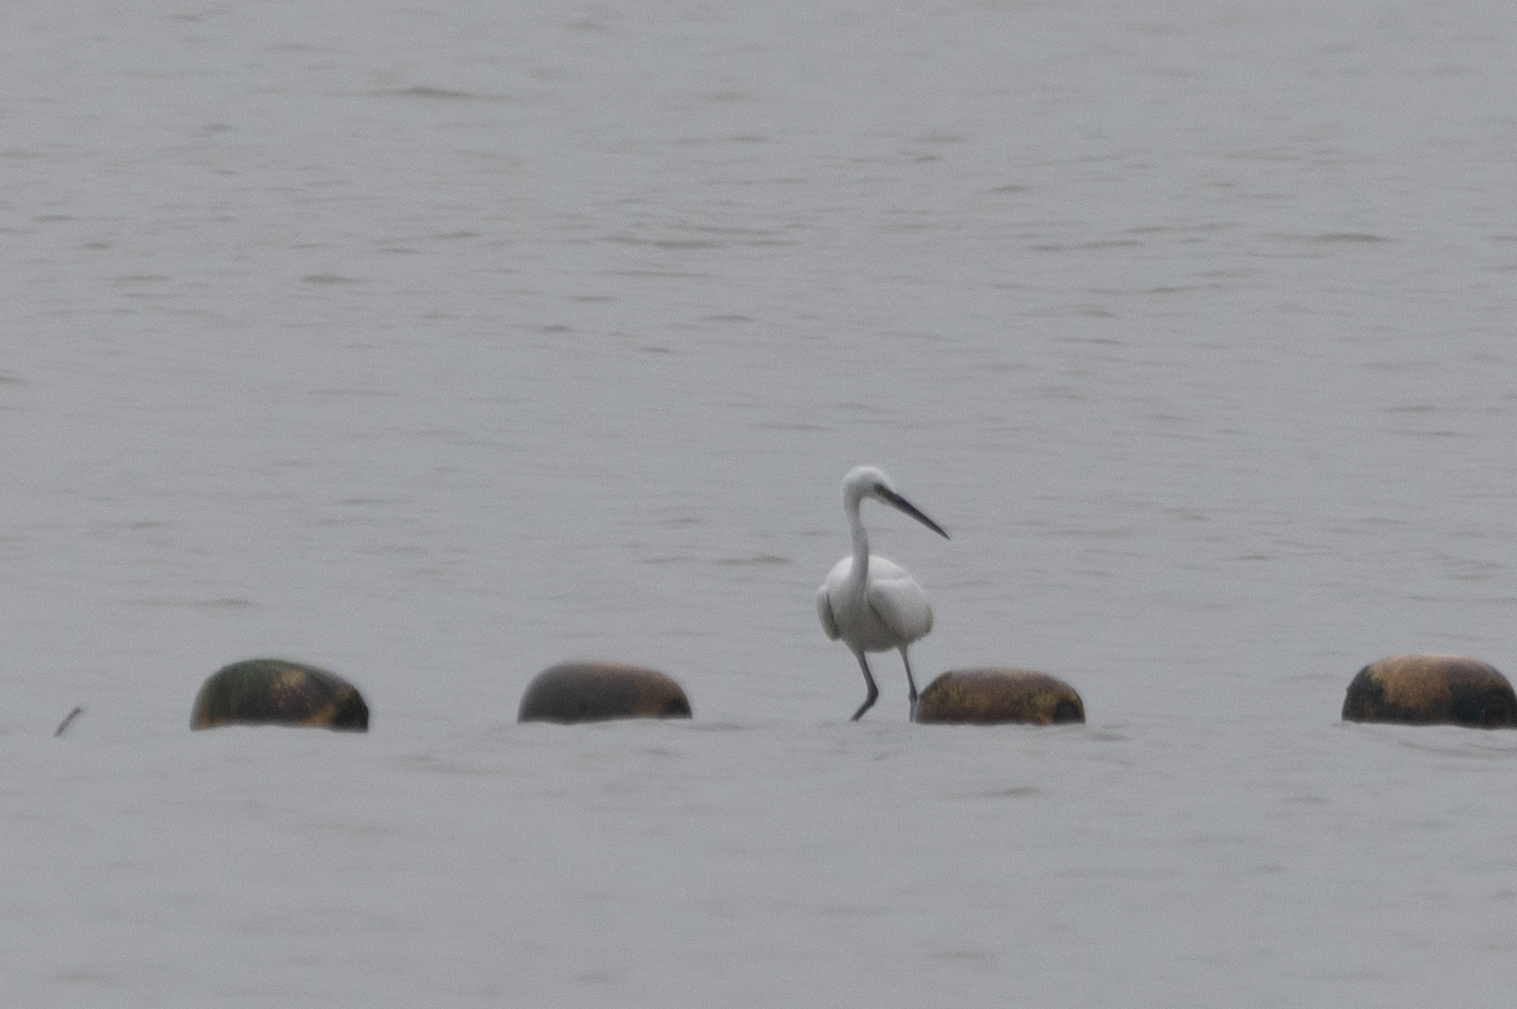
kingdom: Animalia
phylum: Chordata
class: Aves
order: Pelecaniformes
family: Ardeidae
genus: Egretta
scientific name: Egretta garzetta
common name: Little egret
